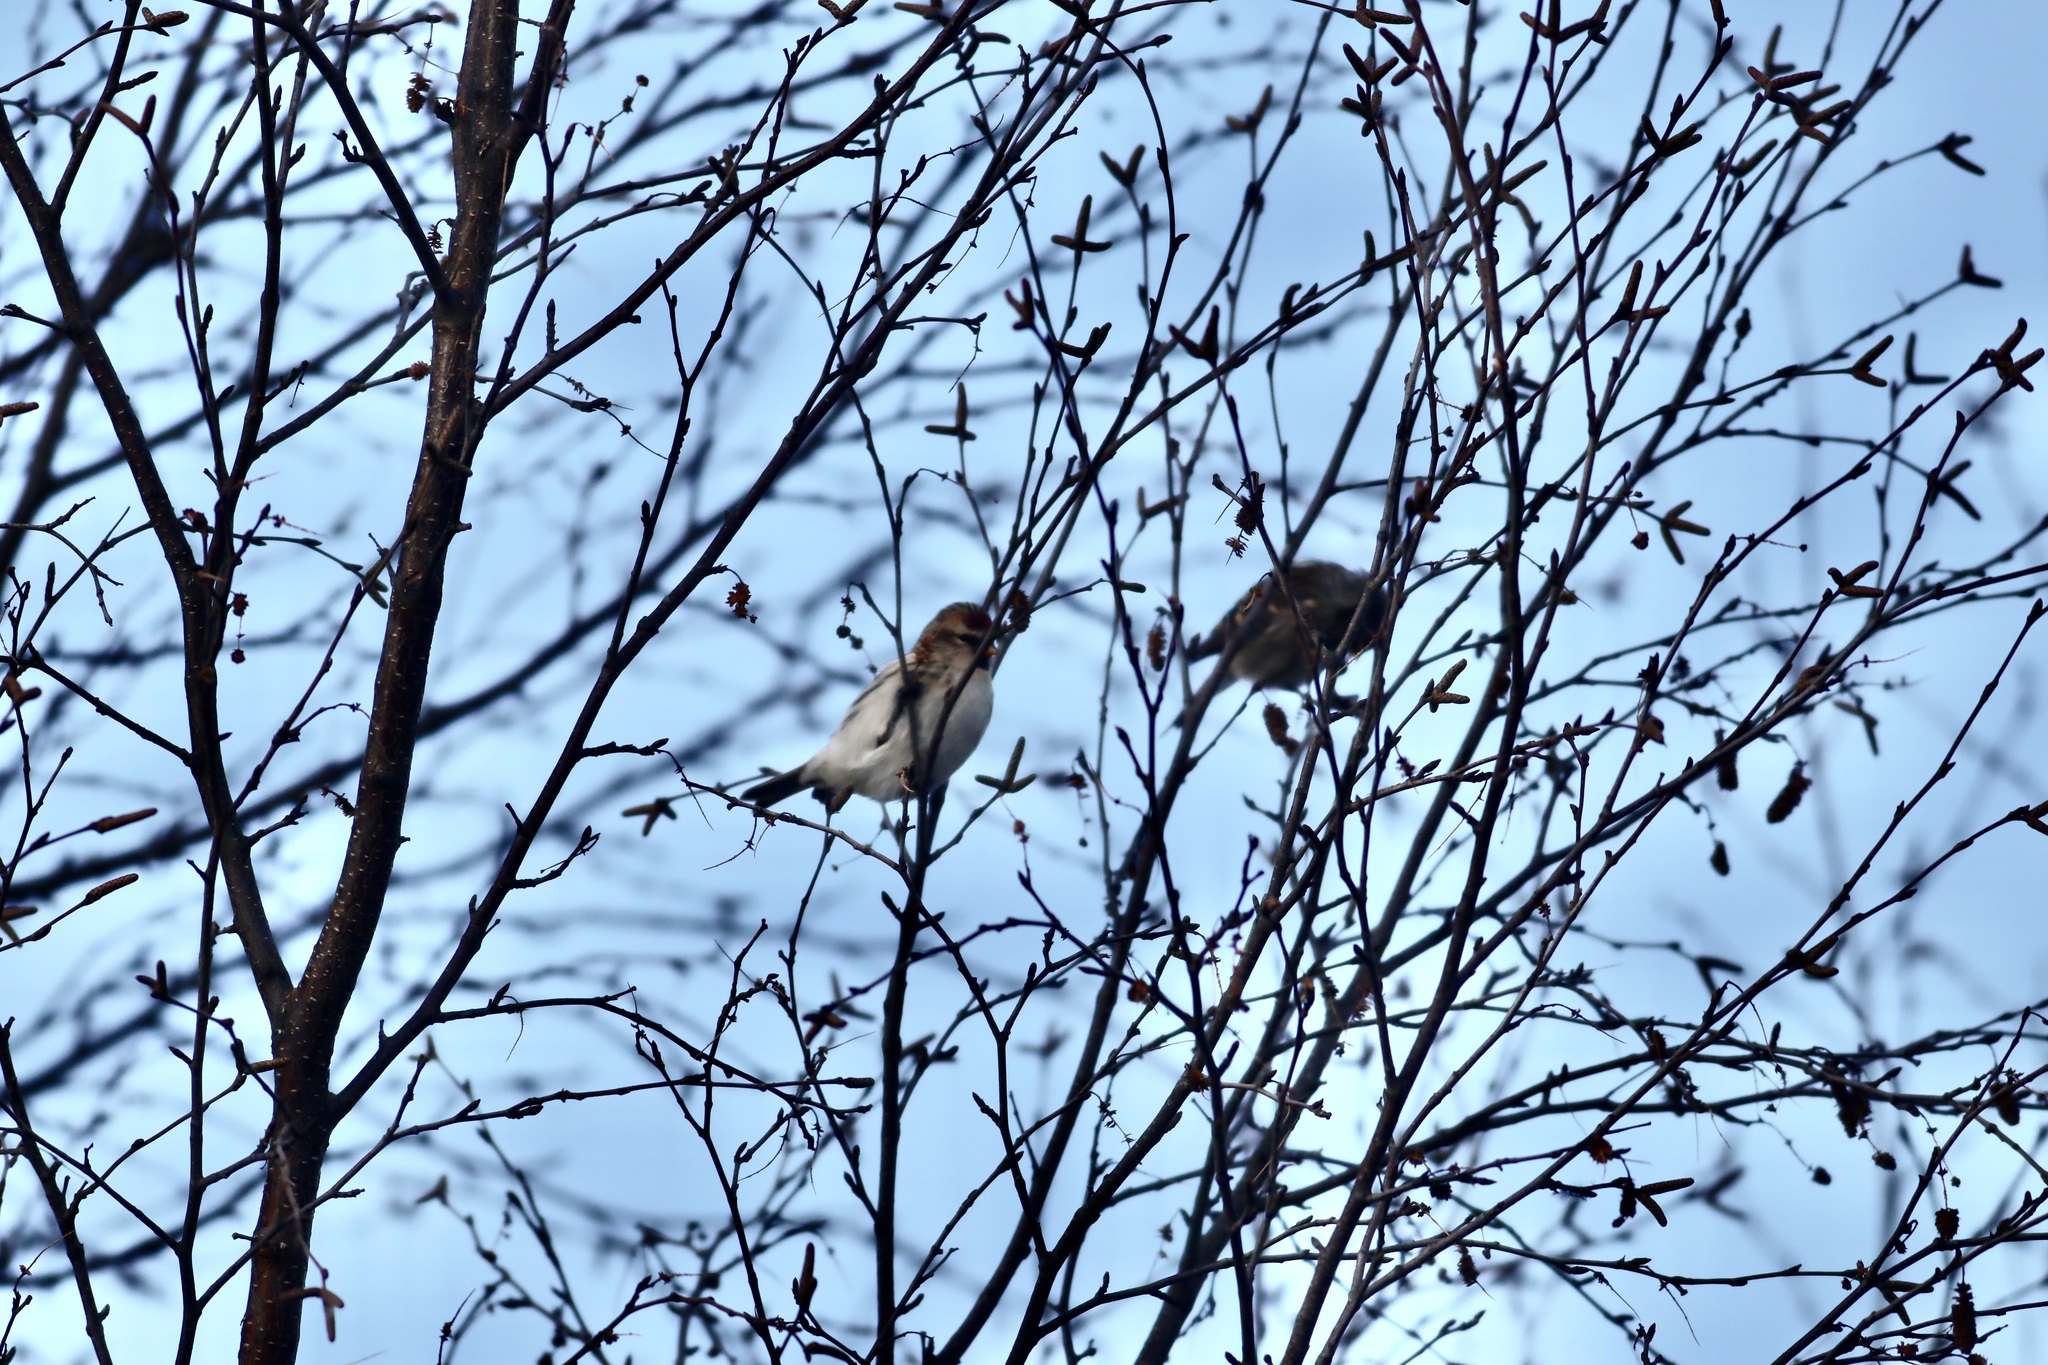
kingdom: Animalia
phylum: Chordata
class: Aves
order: Passeriformes
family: Fringillidae
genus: Acanthis
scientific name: Acanthis hornemanni
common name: Arctic redpoll
